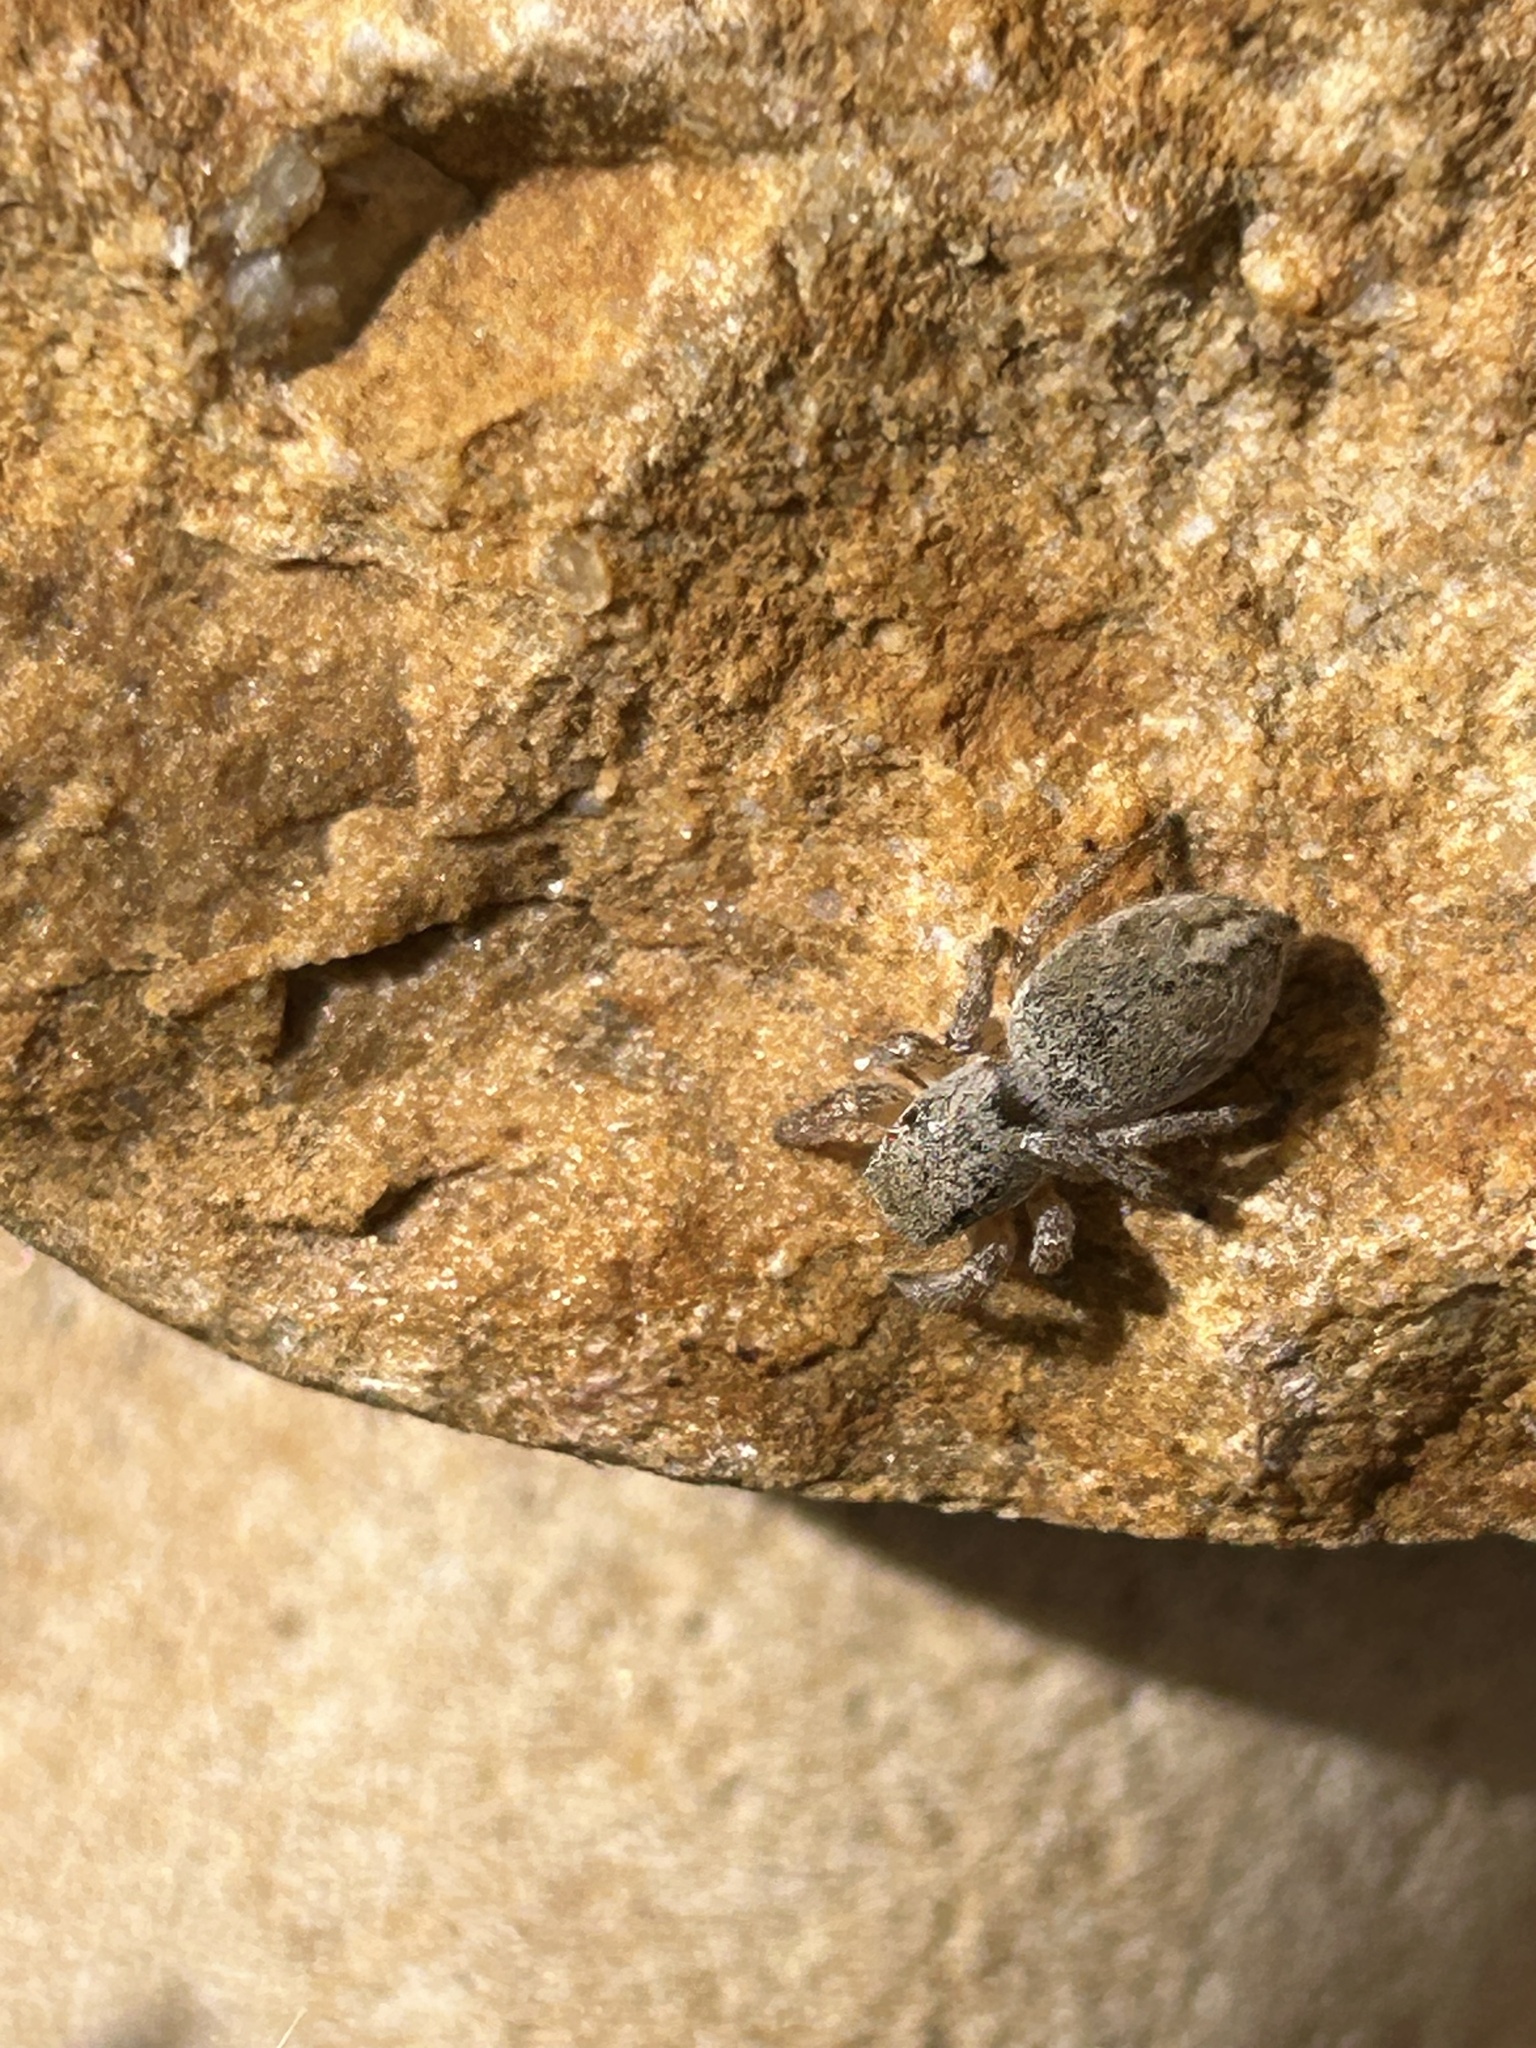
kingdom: Animalia
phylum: Arthropoda
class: Arachnida
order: Araneae
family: Salticidae
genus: Habronattus
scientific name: Habronattus festus
